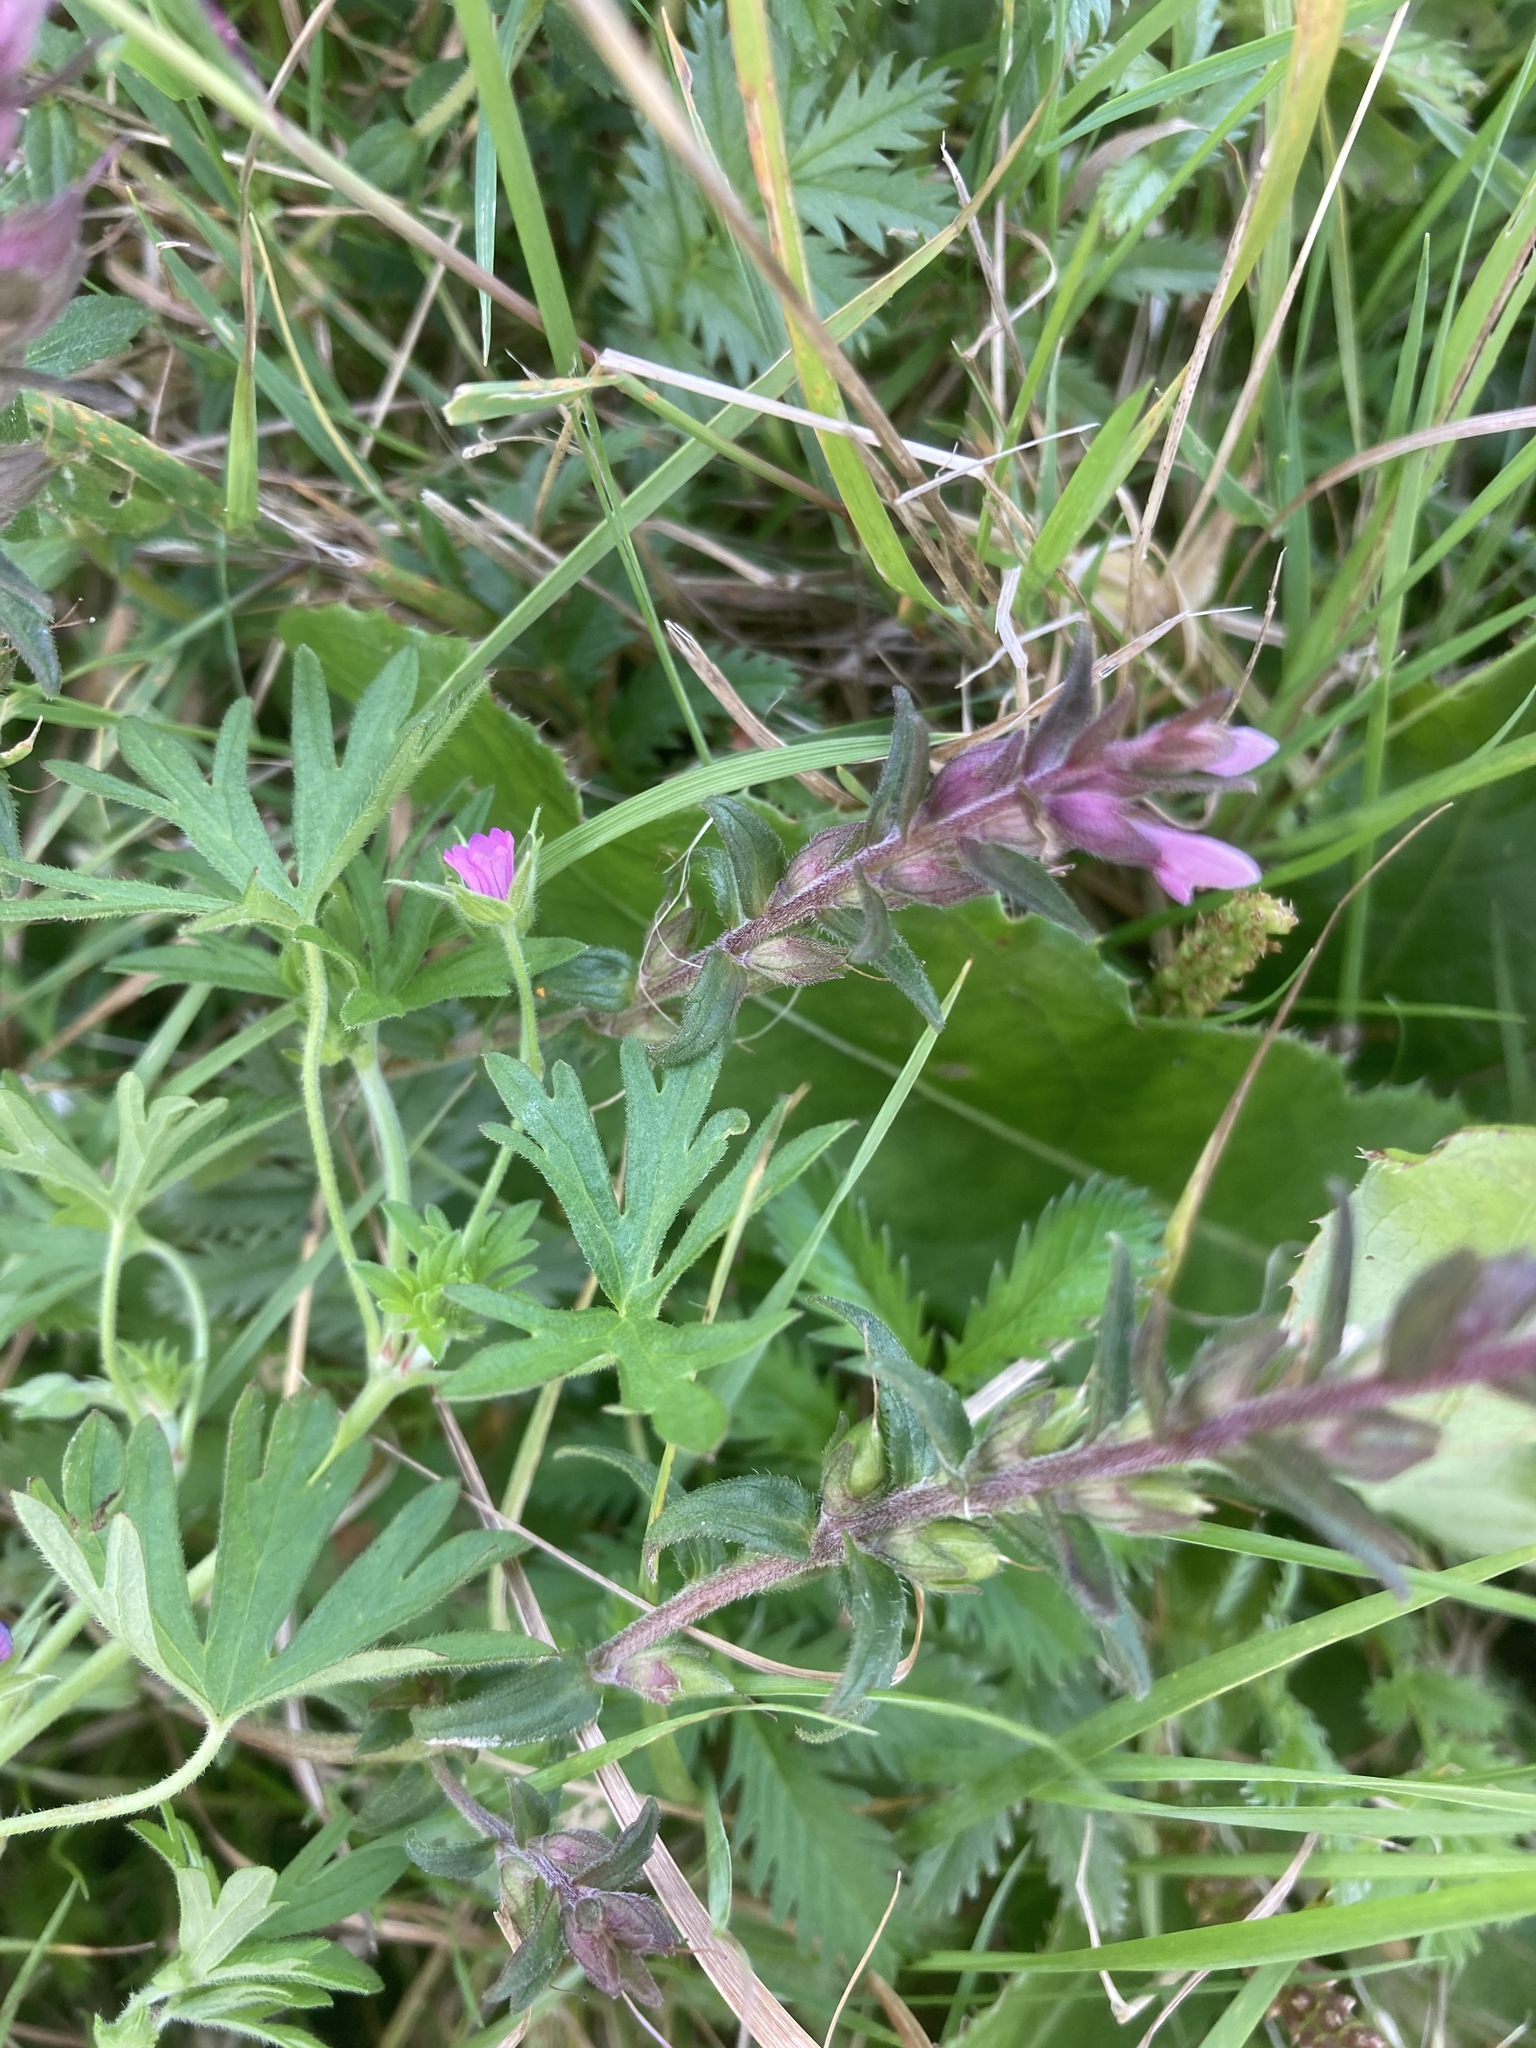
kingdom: Plantae
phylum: Tracheophyta
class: Magnoliopsida
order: Lamiales
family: Orobanchaceae
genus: Odontites
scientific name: Odontites vernus
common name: Red bartsia
